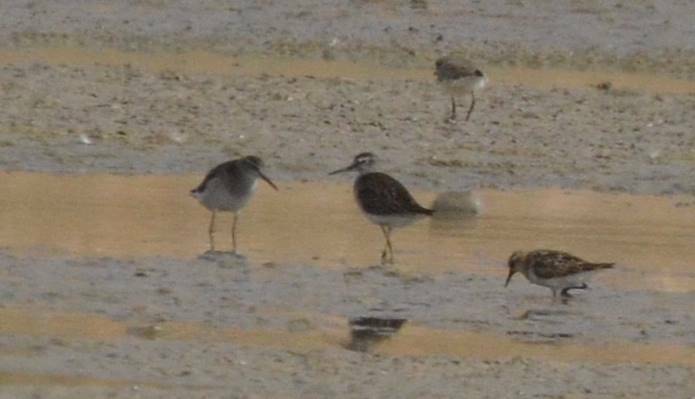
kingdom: Animalia
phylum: Chordata
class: Aves
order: Charadriiformes
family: Scolopacidae
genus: Tringa
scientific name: Tringa glareola
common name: Wood sandpiper
